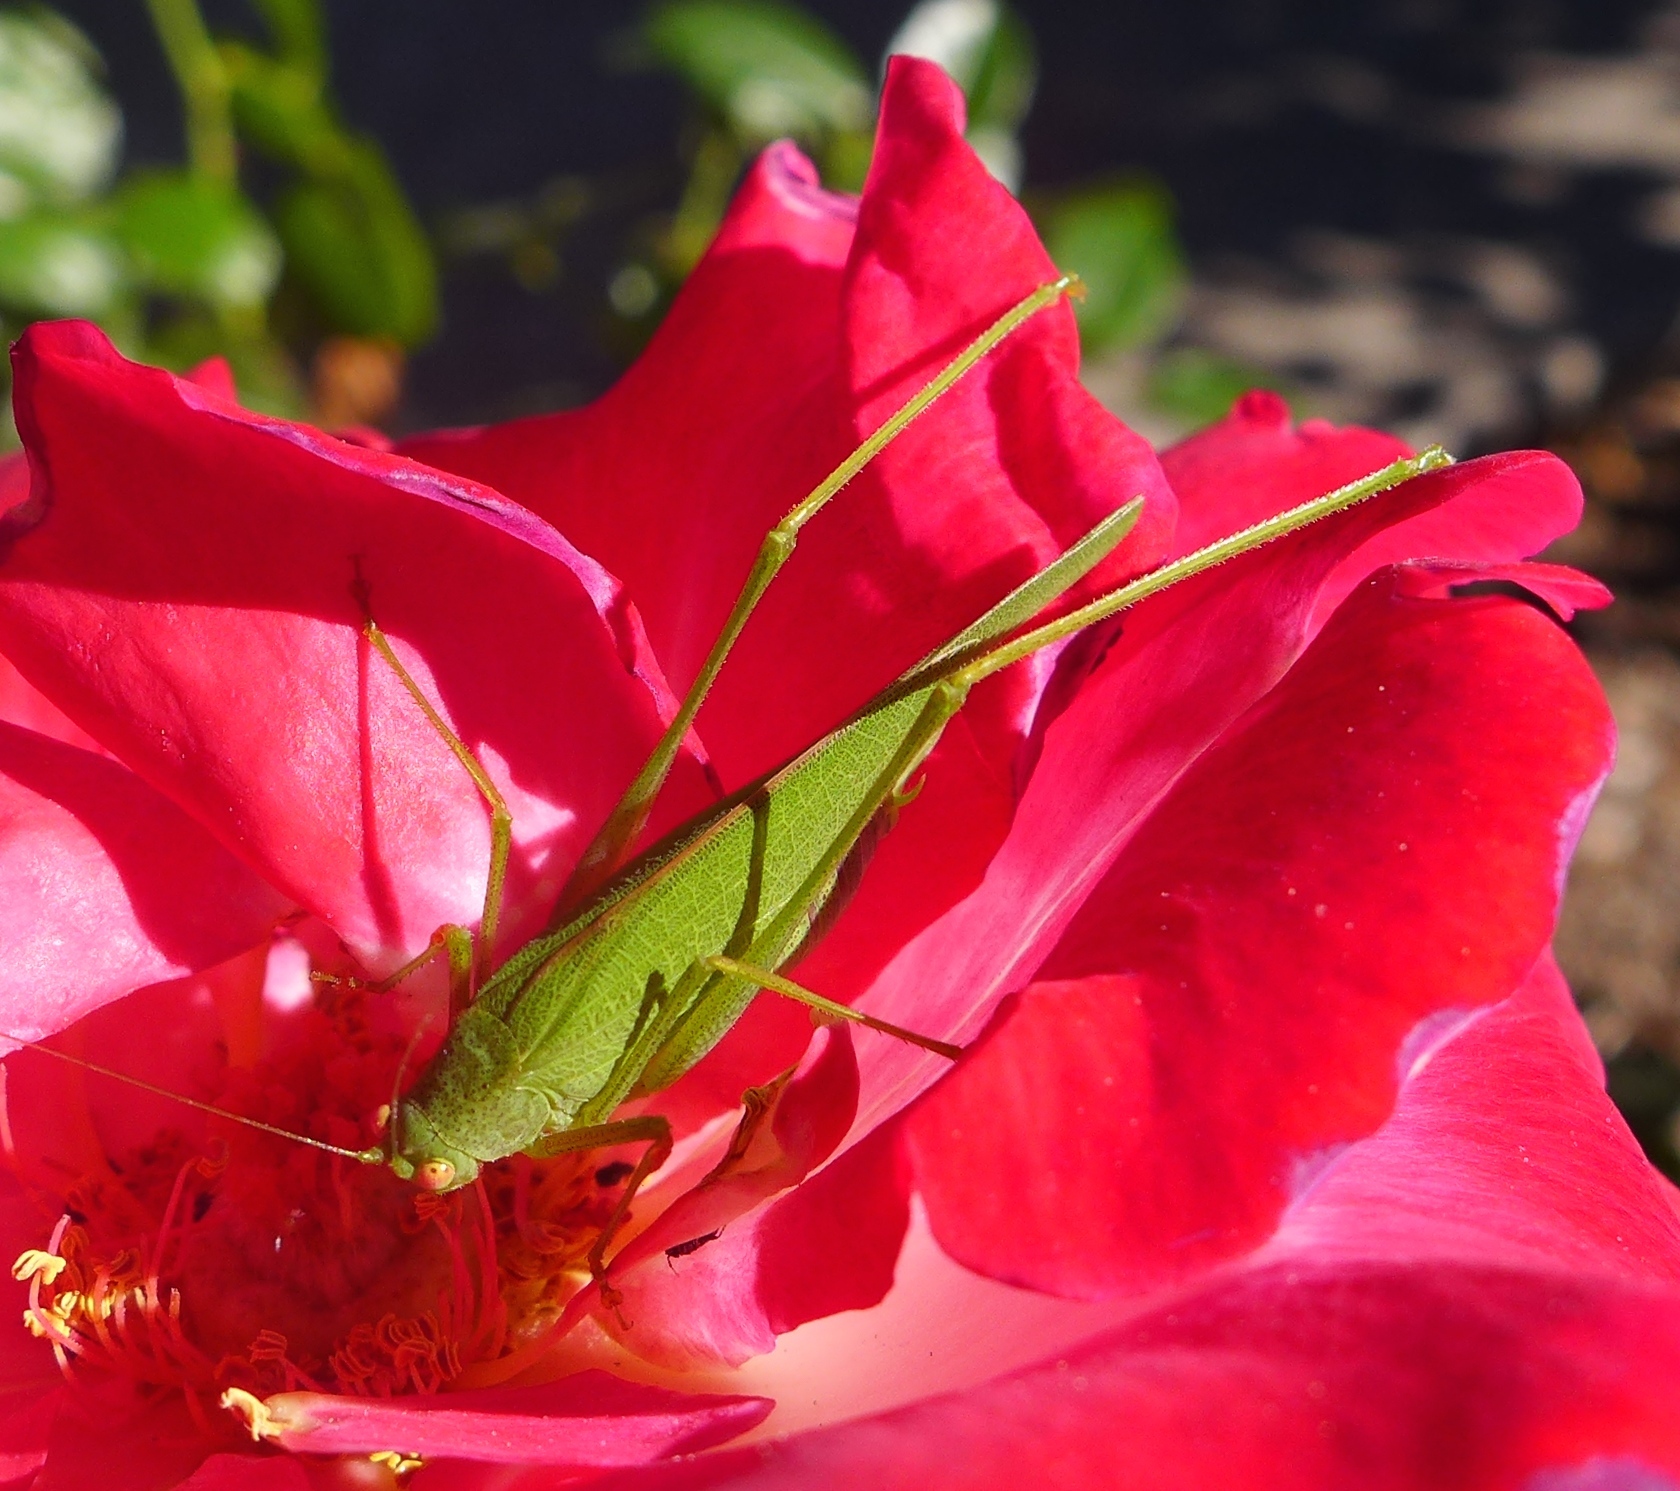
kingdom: Animalia
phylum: Arthropoda
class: Insecta
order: Orthoptera
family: Tettigoniidae
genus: Phaneroptera
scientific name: Phaneroptera nana
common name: Southern sickle bush-cricket
